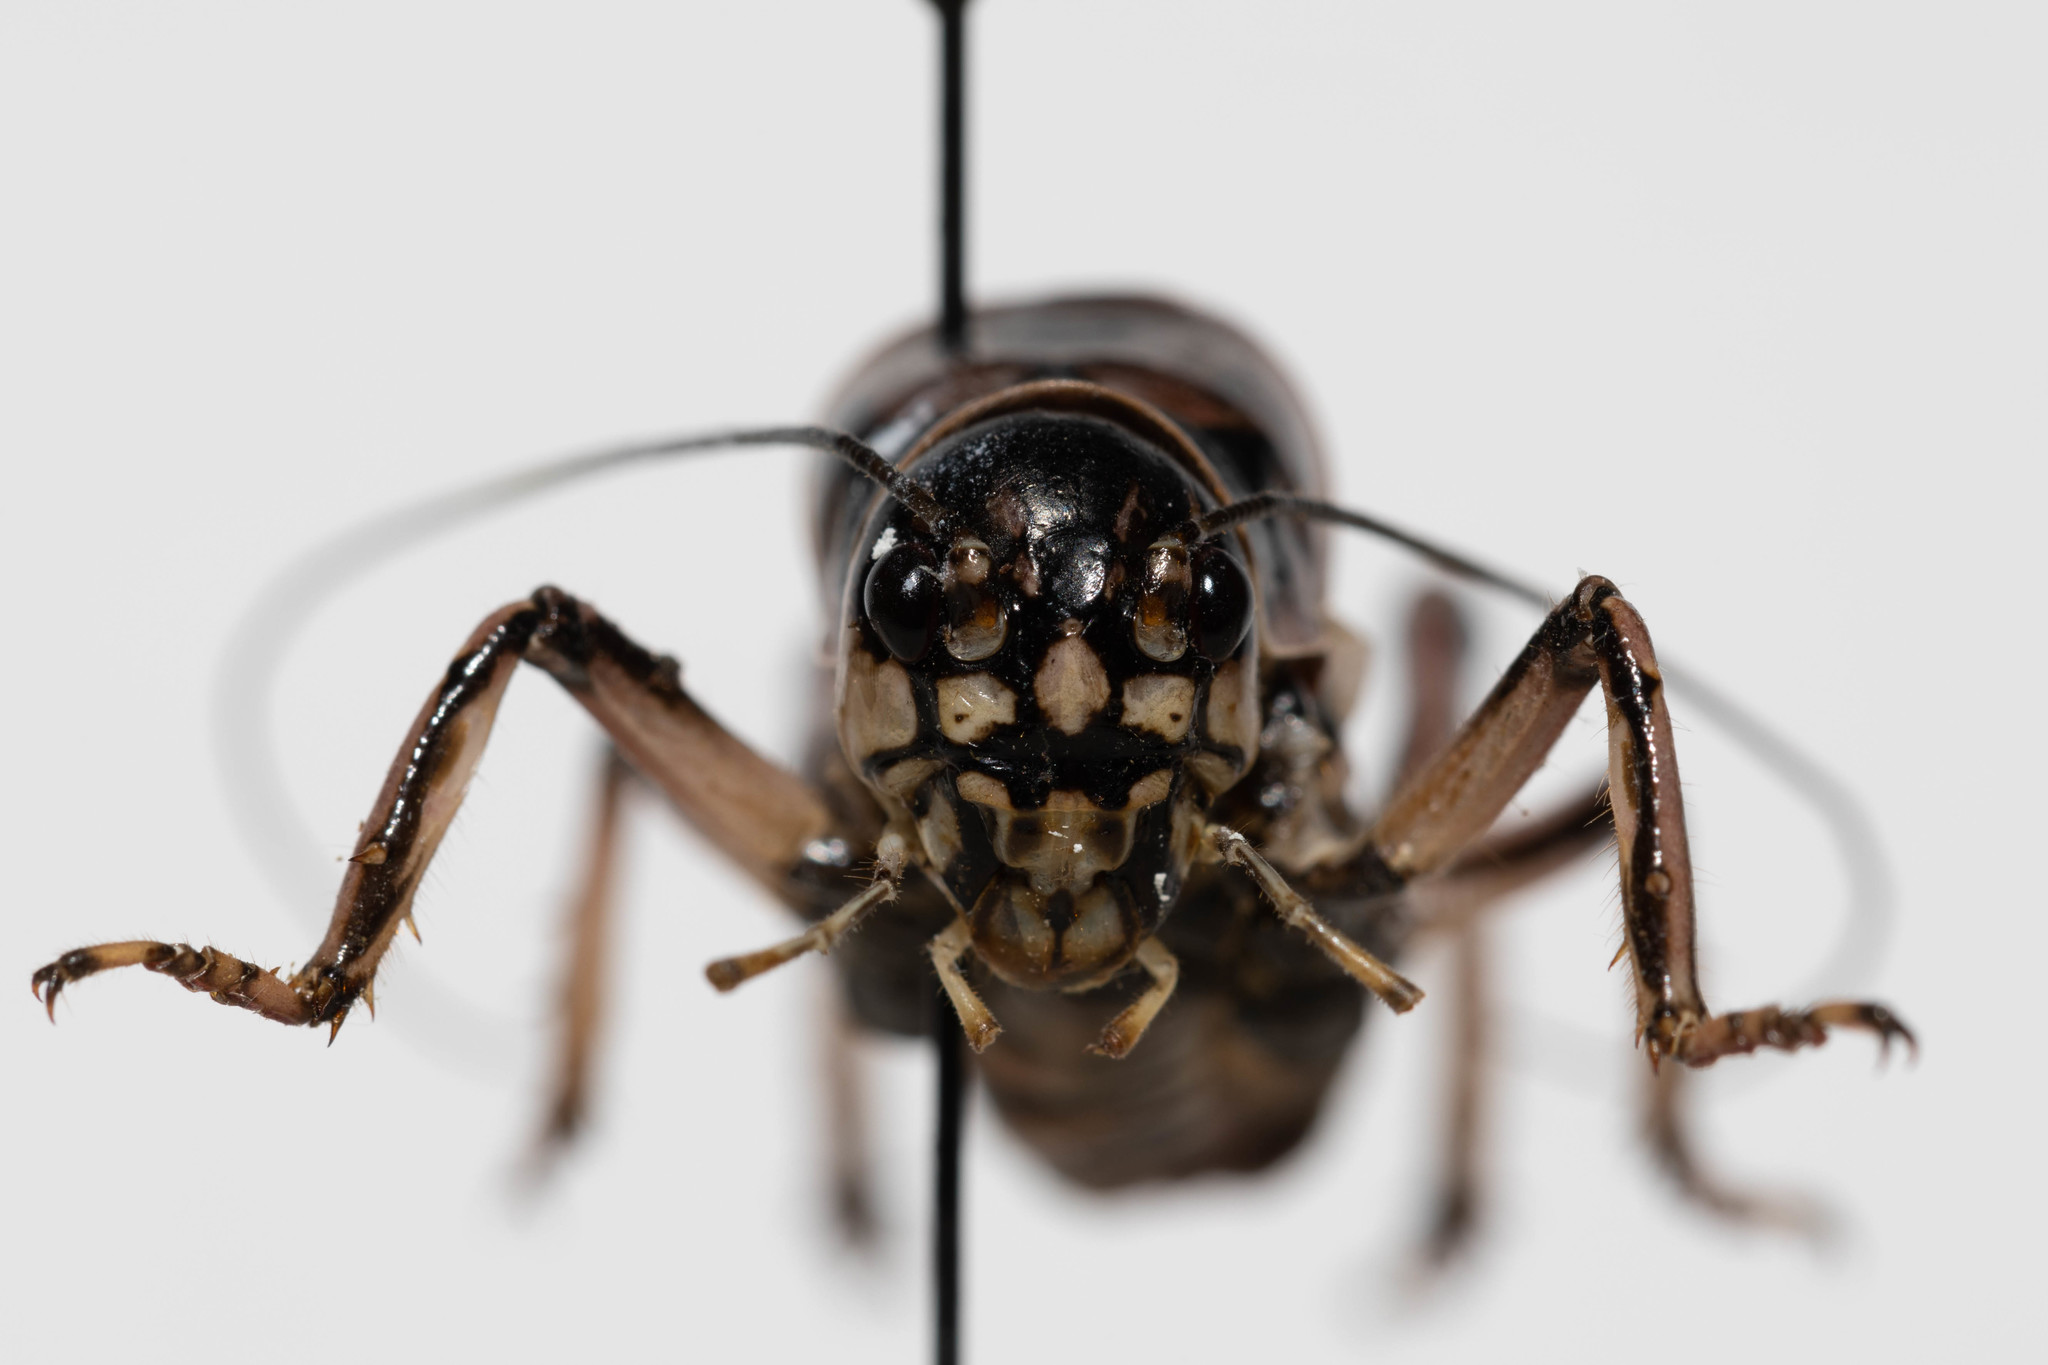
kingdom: Animalia
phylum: Arthropoda
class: Insecta
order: Orthoptera
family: Prophalangopsidae
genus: Cyphoderris
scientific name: Cyphoderris buckelli
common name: Buckell’s grig
